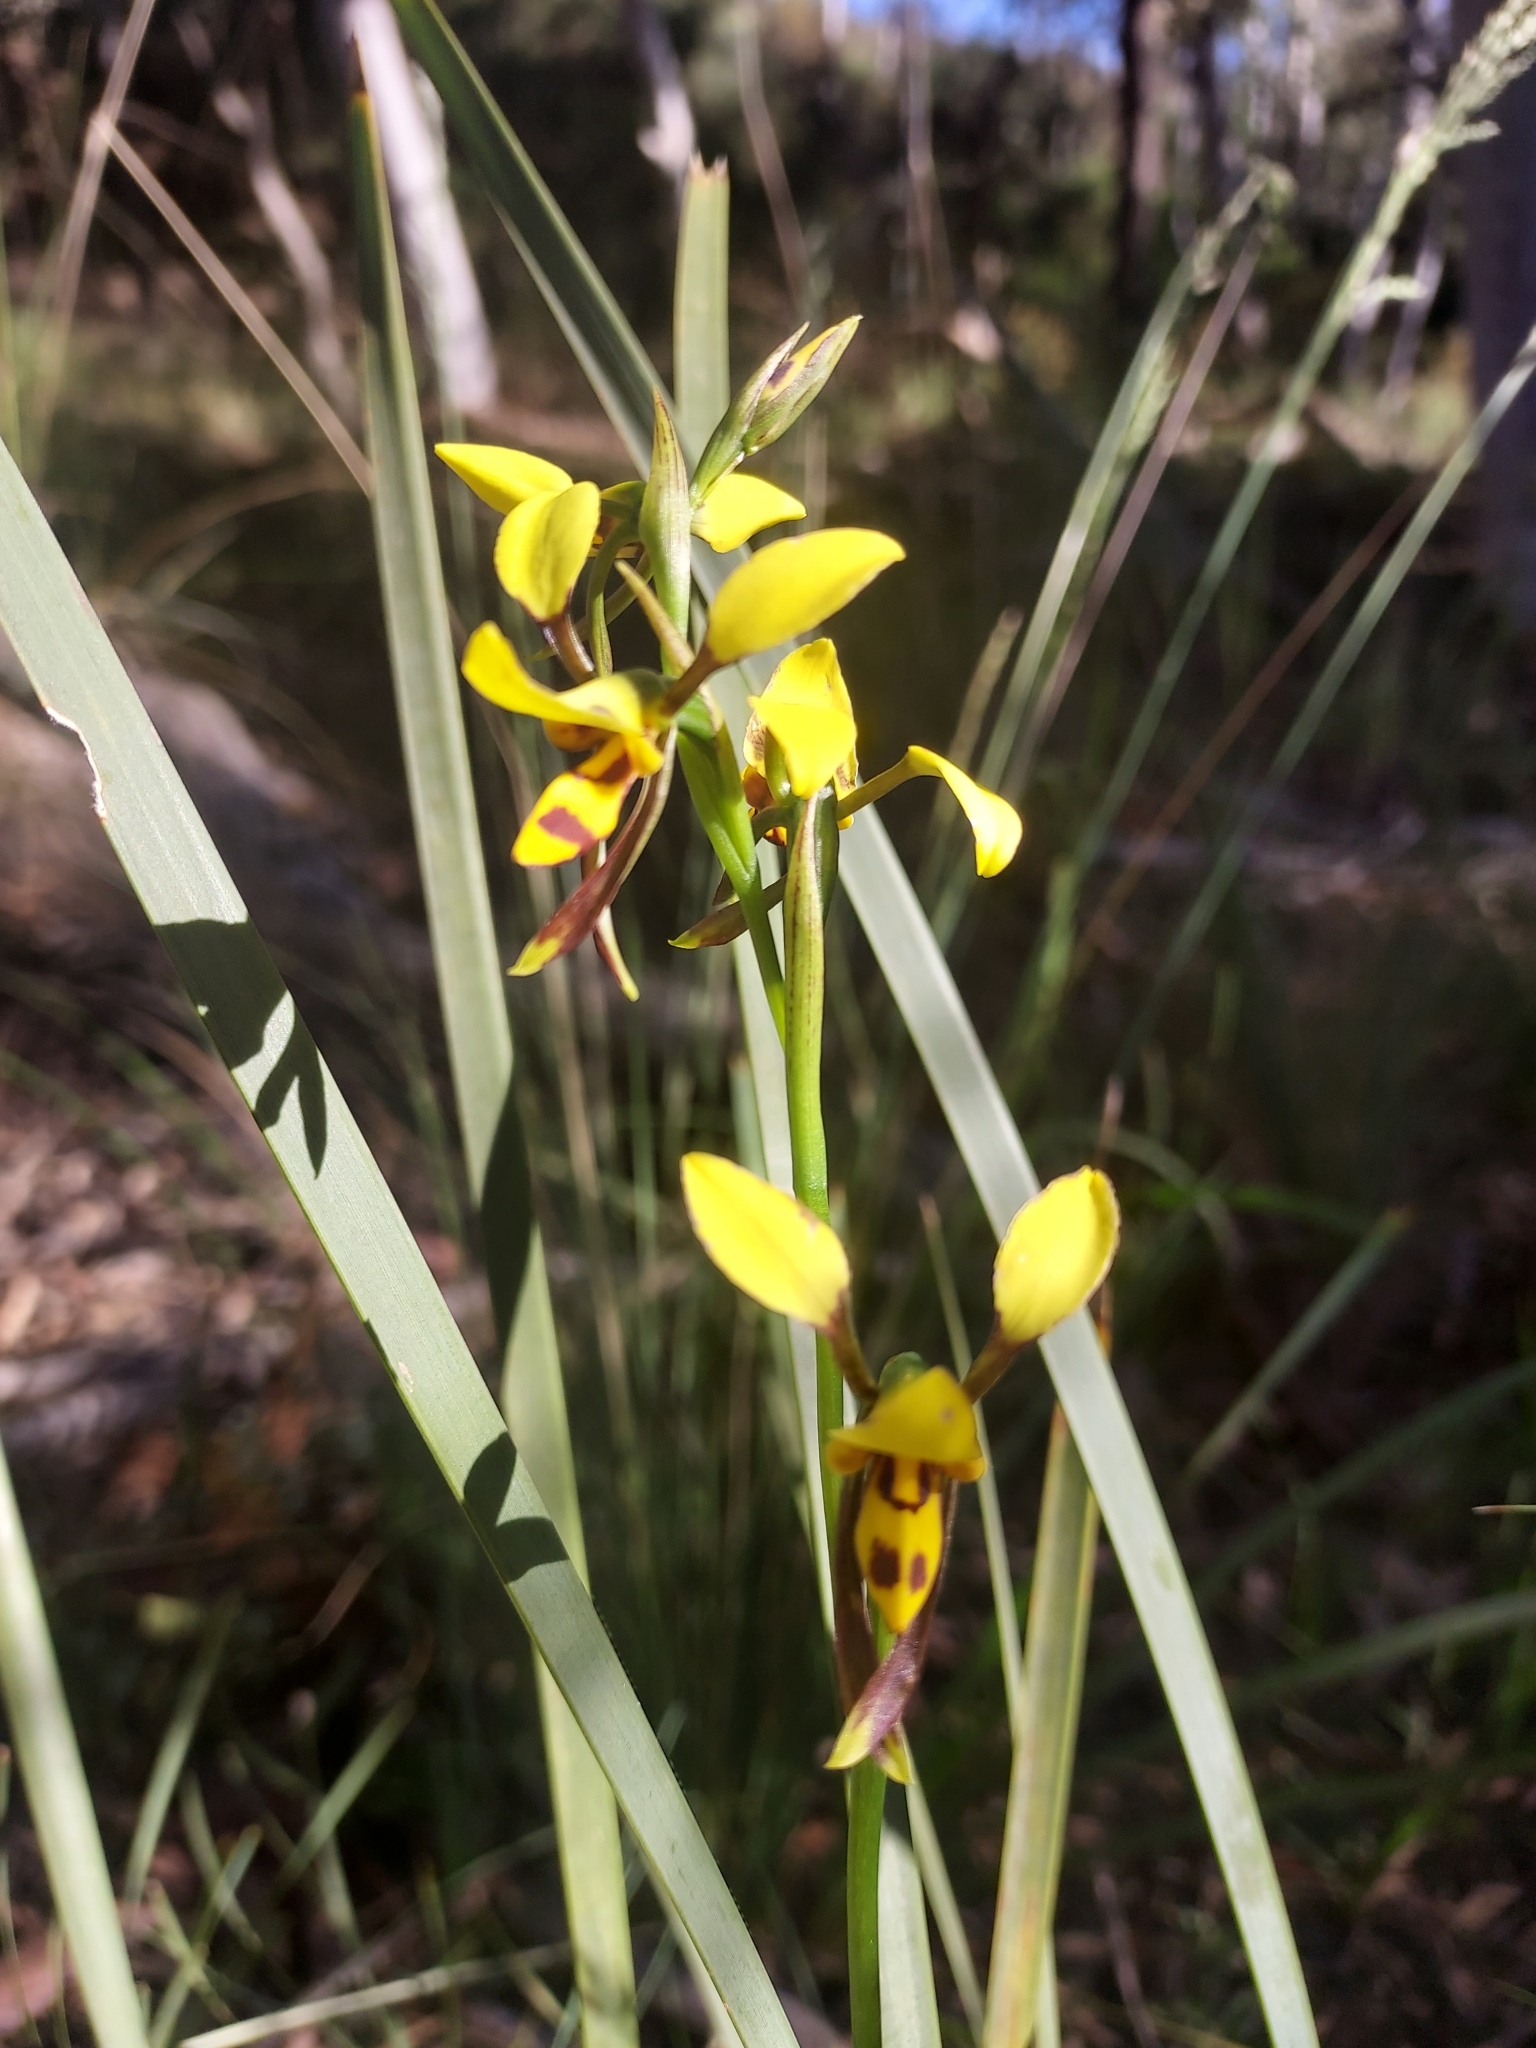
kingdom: Plantae
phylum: Tracheophyta
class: Liliopsida
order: Asparagales
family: Orchidaceae
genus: Diuris
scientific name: Diuris sulphurea
